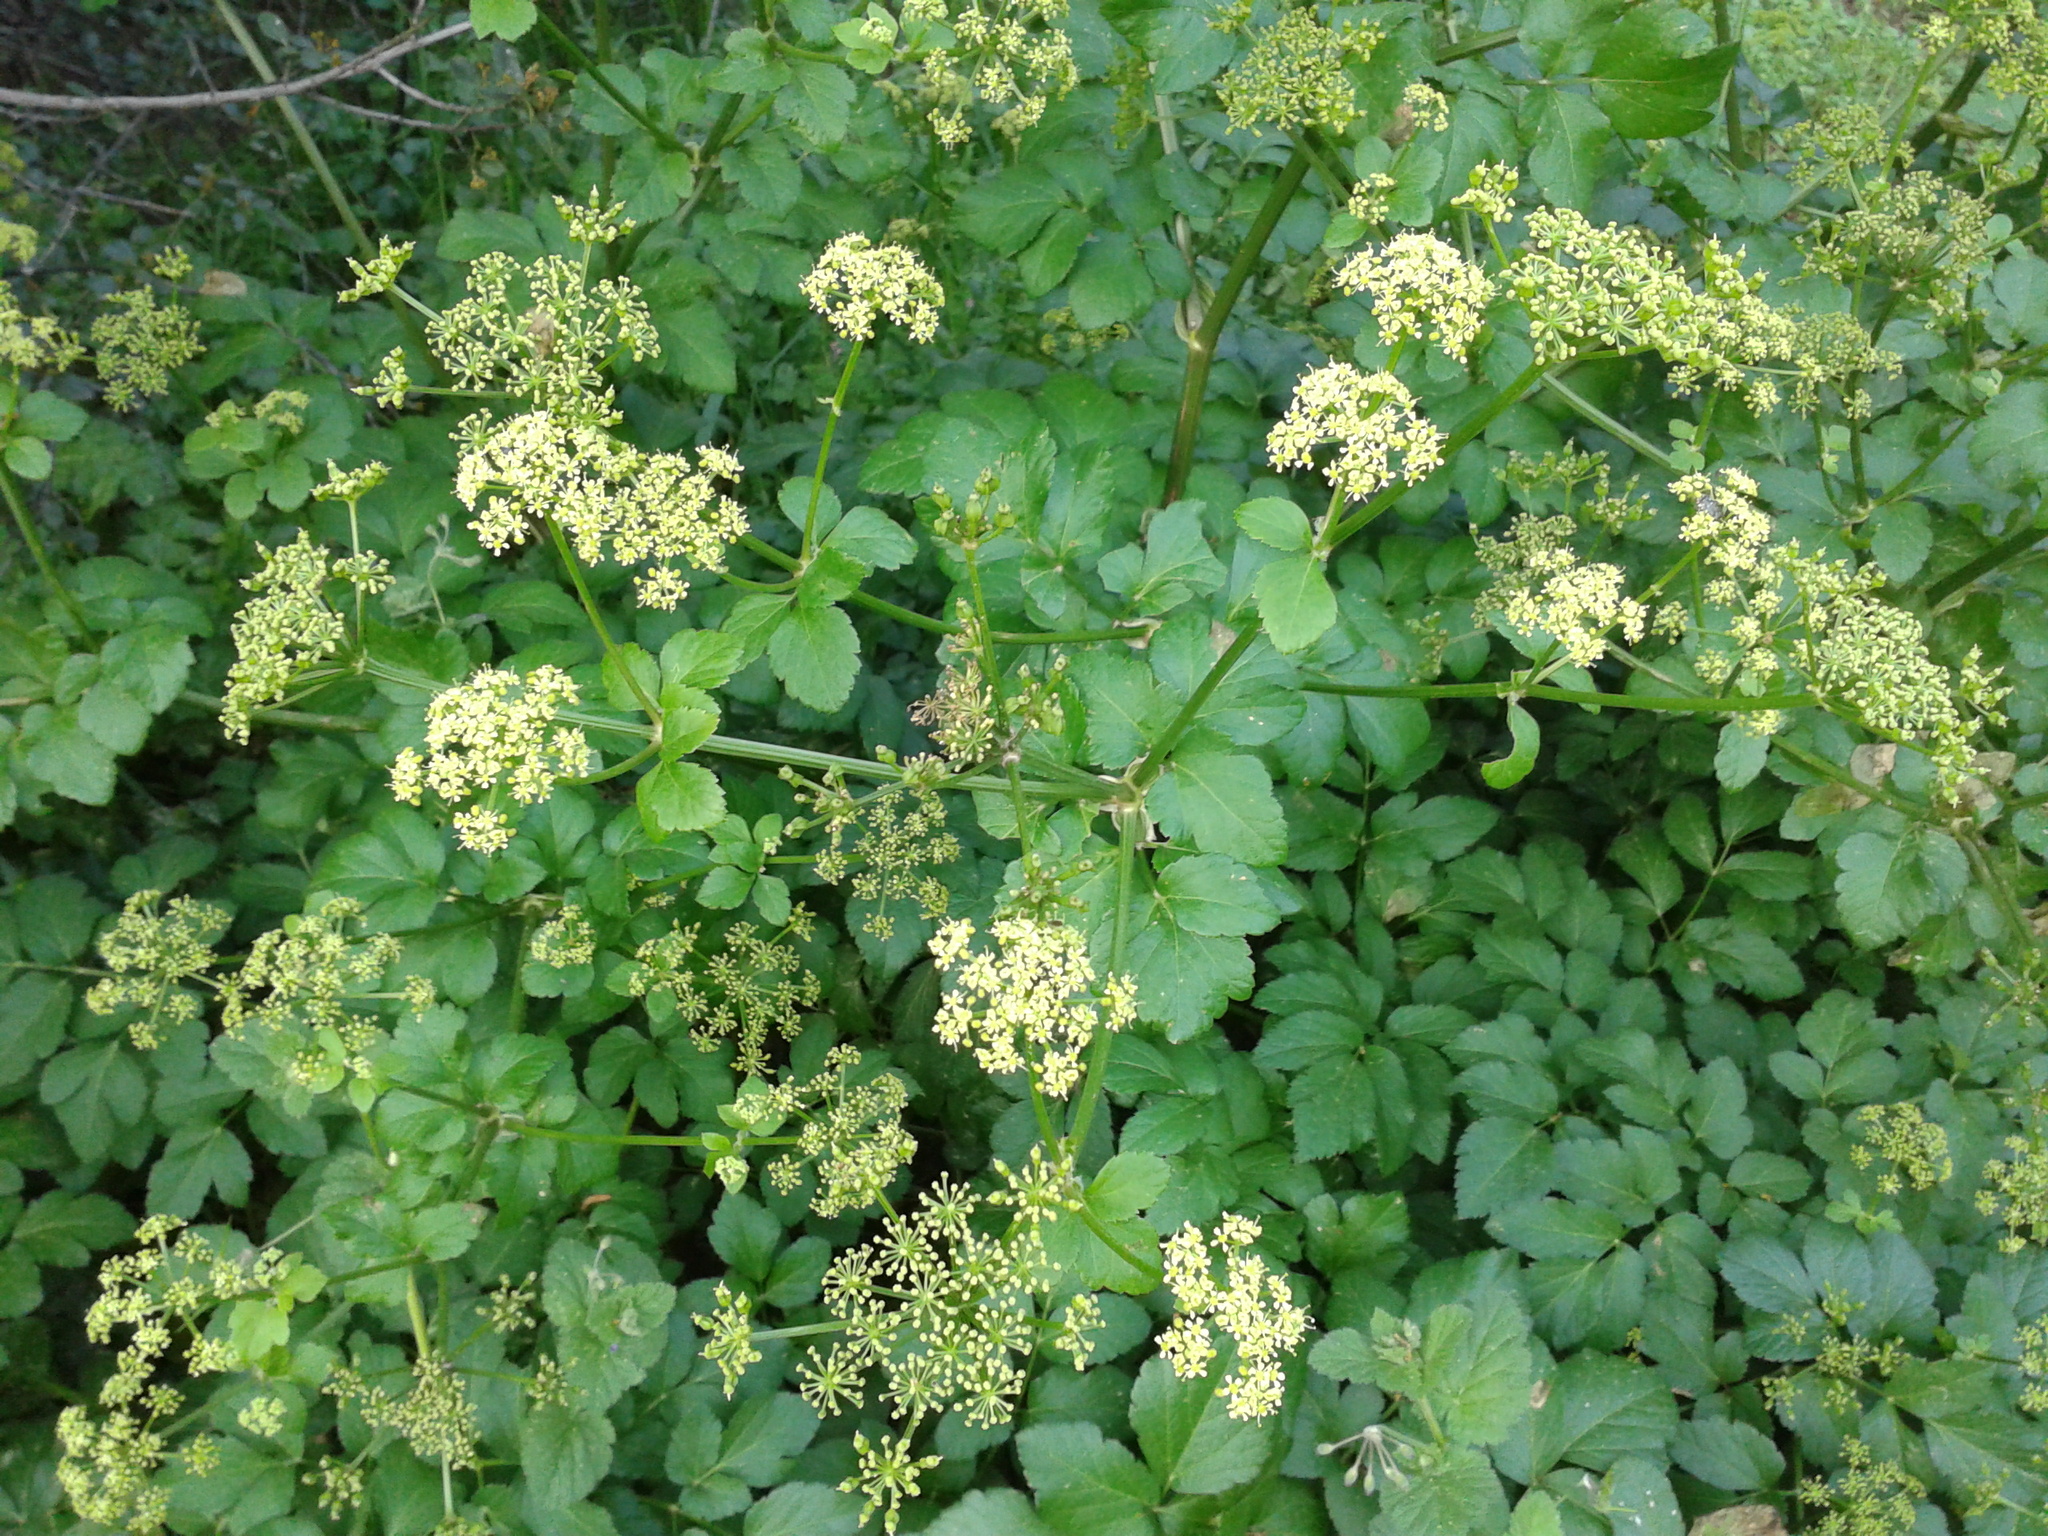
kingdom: Plantae
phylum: Tracheophyta
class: Magnoliopsida
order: Apiales
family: Apiaceae
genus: Smyrnium
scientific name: Smyrnium olusatrum
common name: Alexanders
